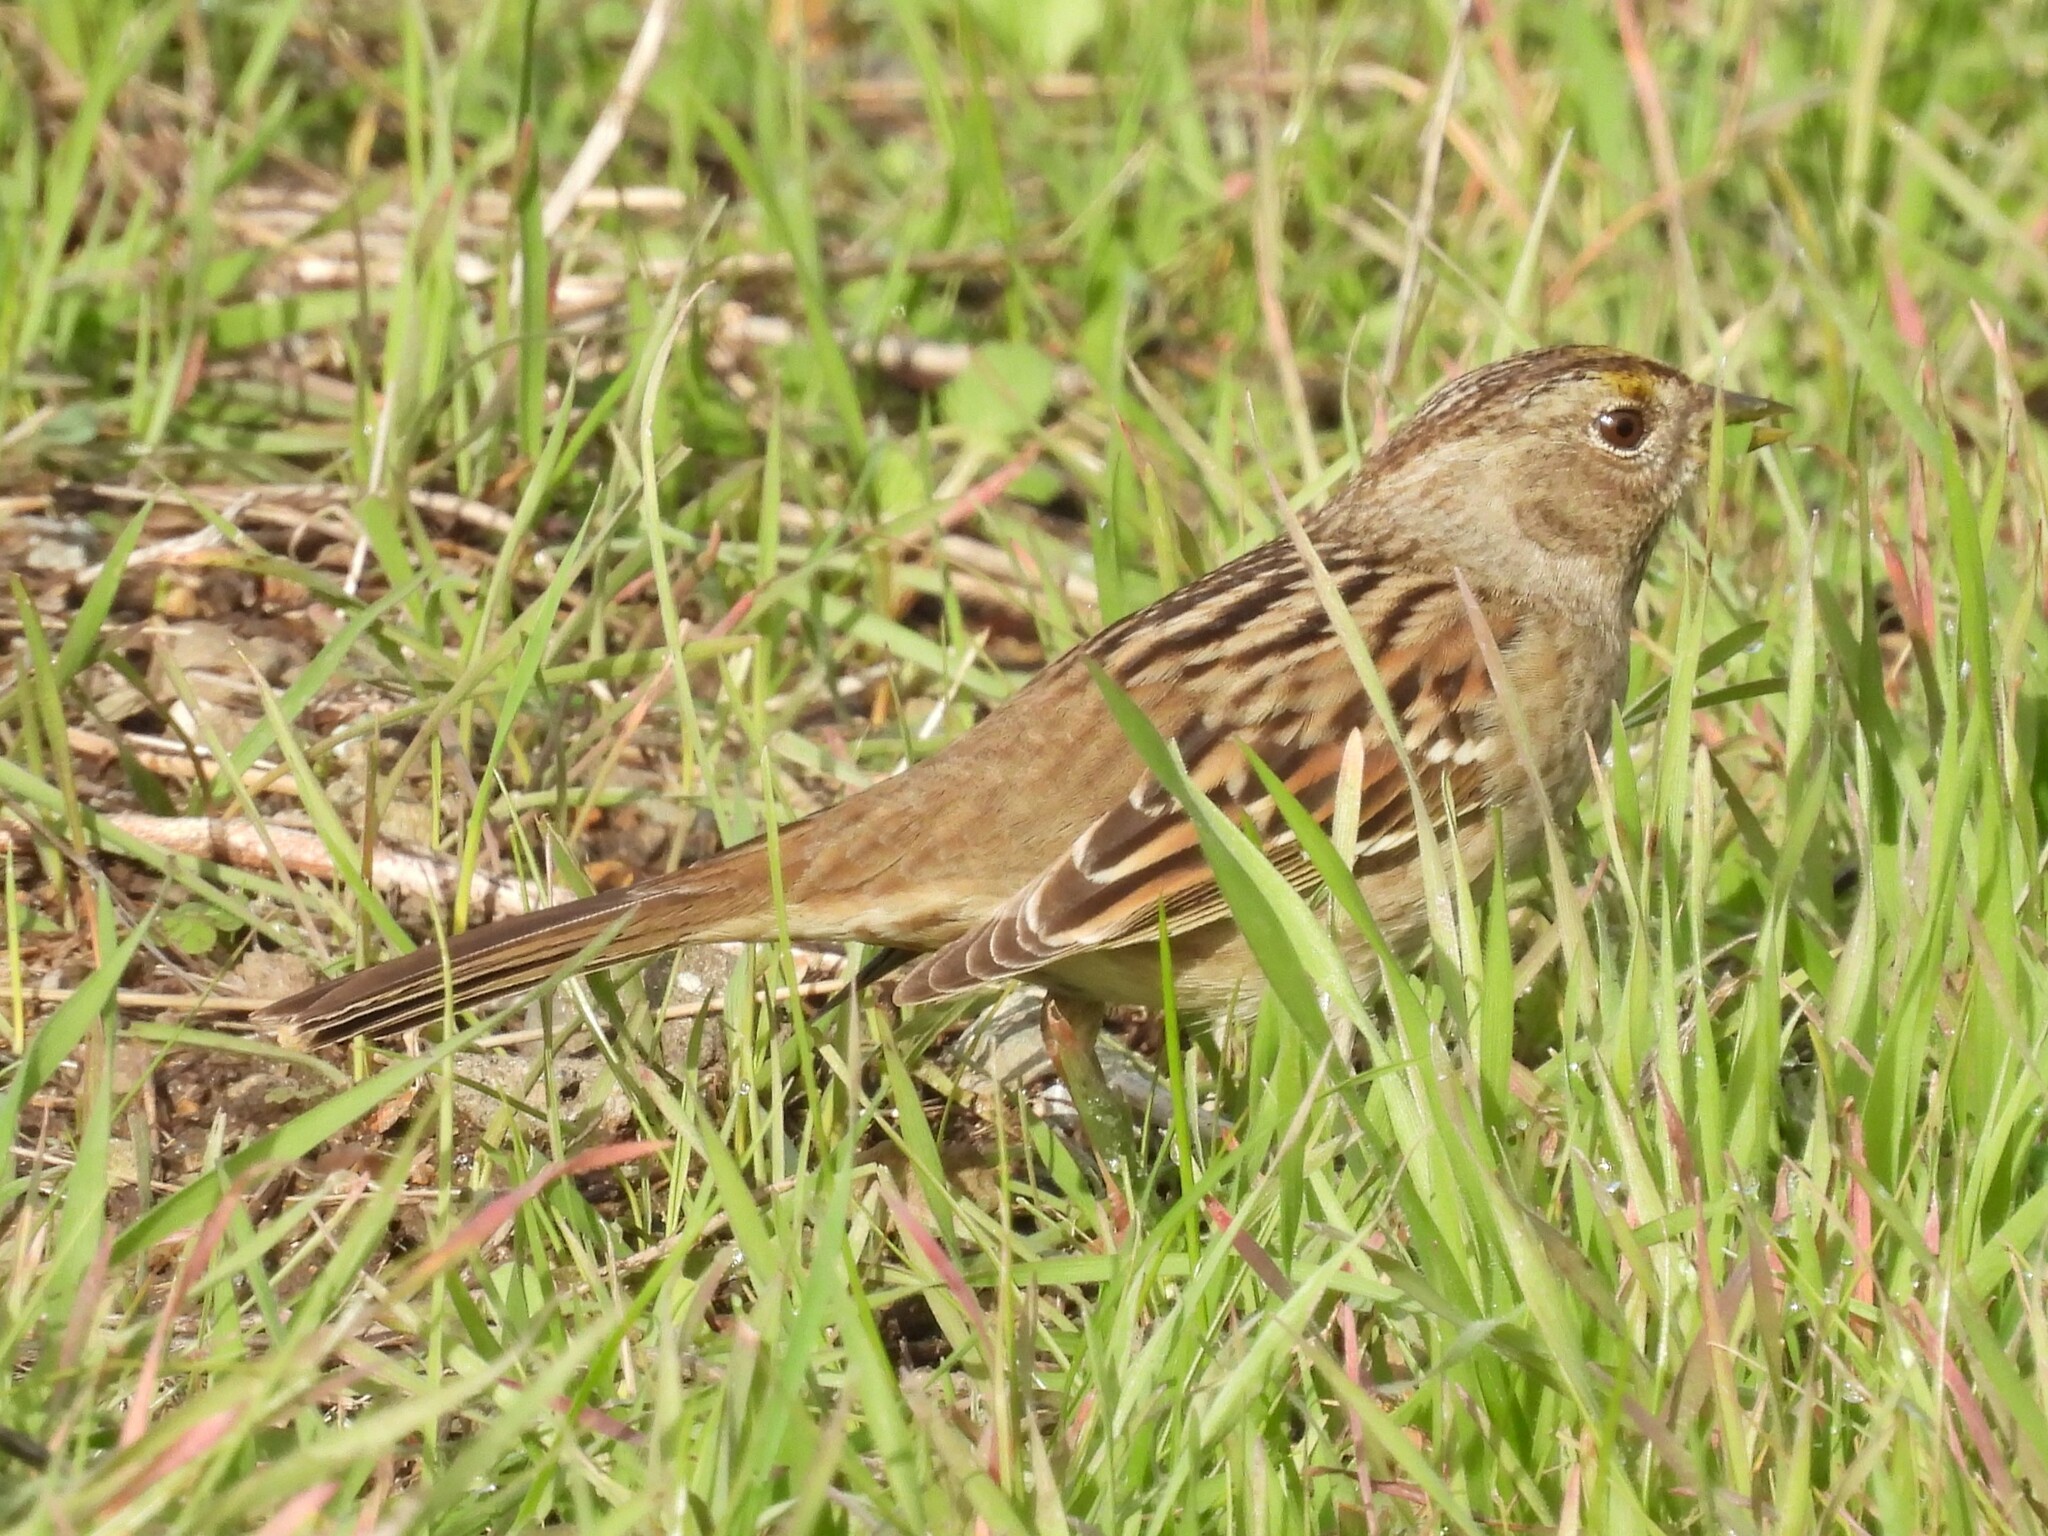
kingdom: Animalia
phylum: Chordata
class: Aves
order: Passeriformes
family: Passerellidae
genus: Zonotrichia
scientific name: Zonotrichia atricapilla
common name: Golden-crowned sparrow
